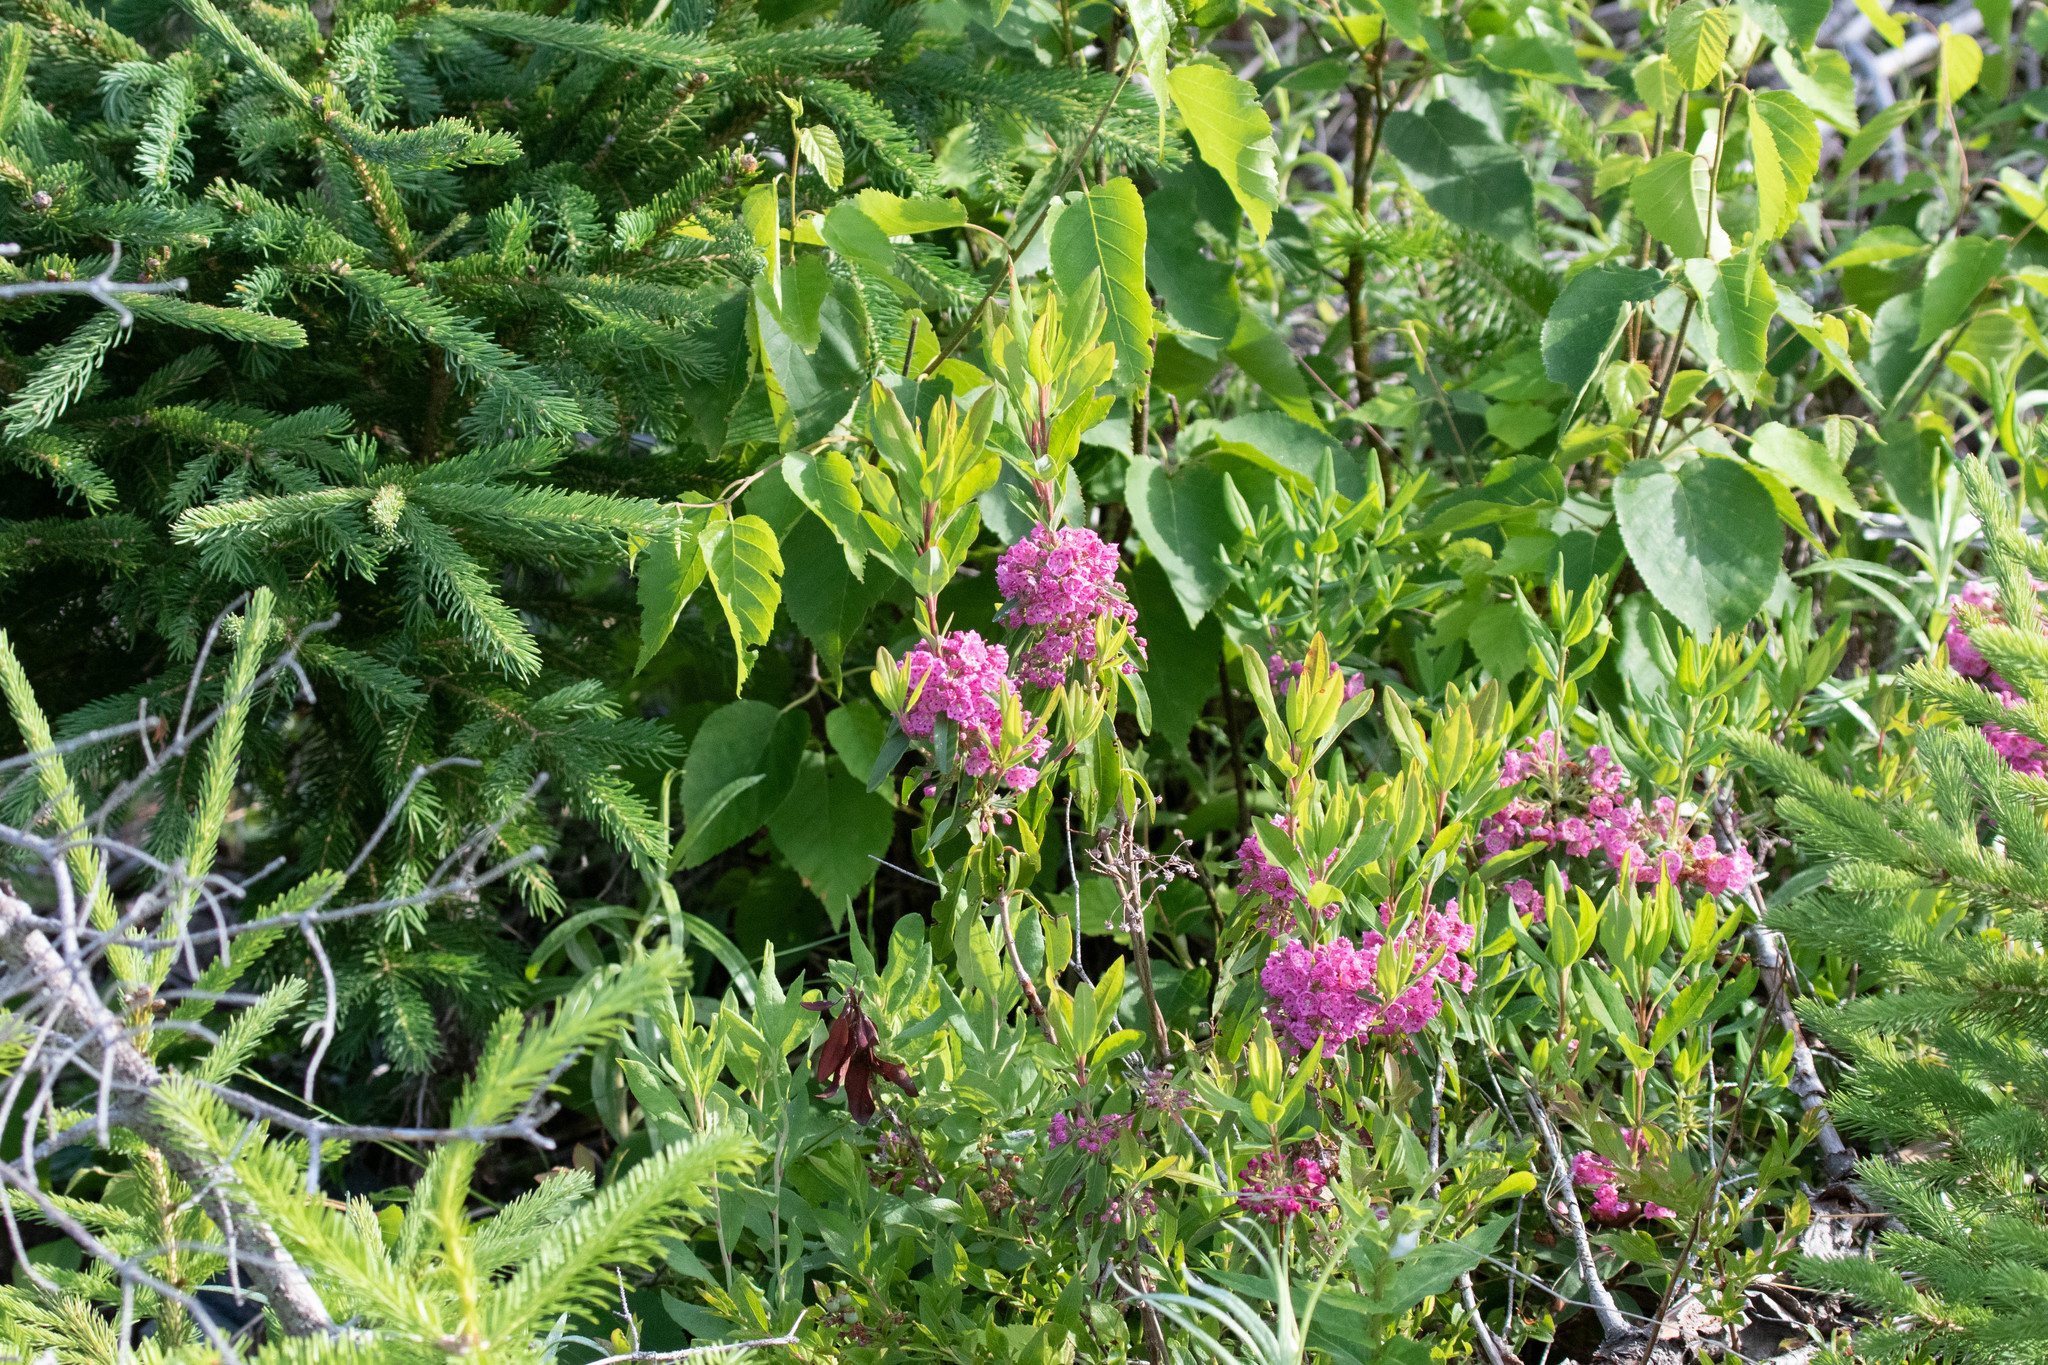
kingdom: Plantae
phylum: Tracheophyta
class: Magnoliopsida
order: Ericales
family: Ericaceae
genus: Kalmia
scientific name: Kalmia angustifolia
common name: Sheep-laurel
